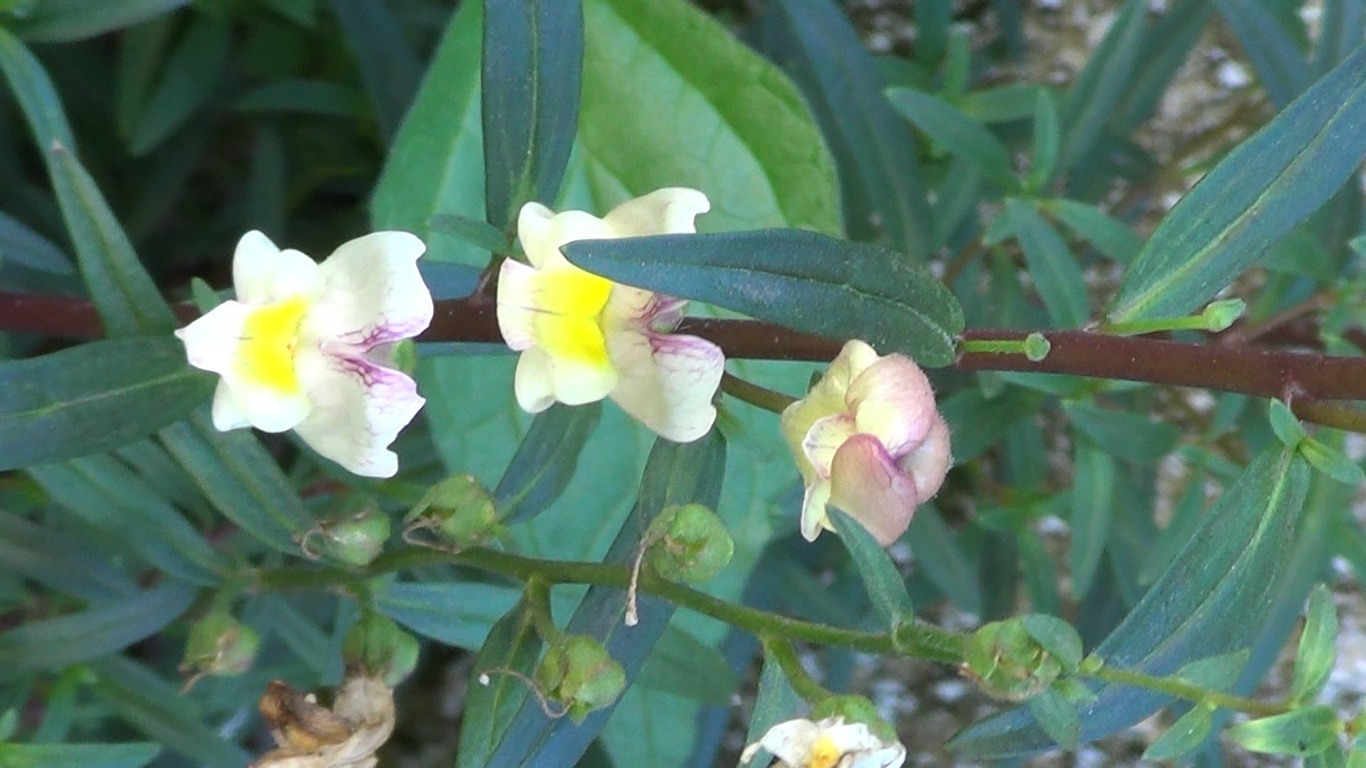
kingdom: Plantae
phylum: Tracheophyta
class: Magnoliopsida
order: Lamiales
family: Plantaginaceae
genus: Antirrhinum
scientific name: Antirrhinum siculum
